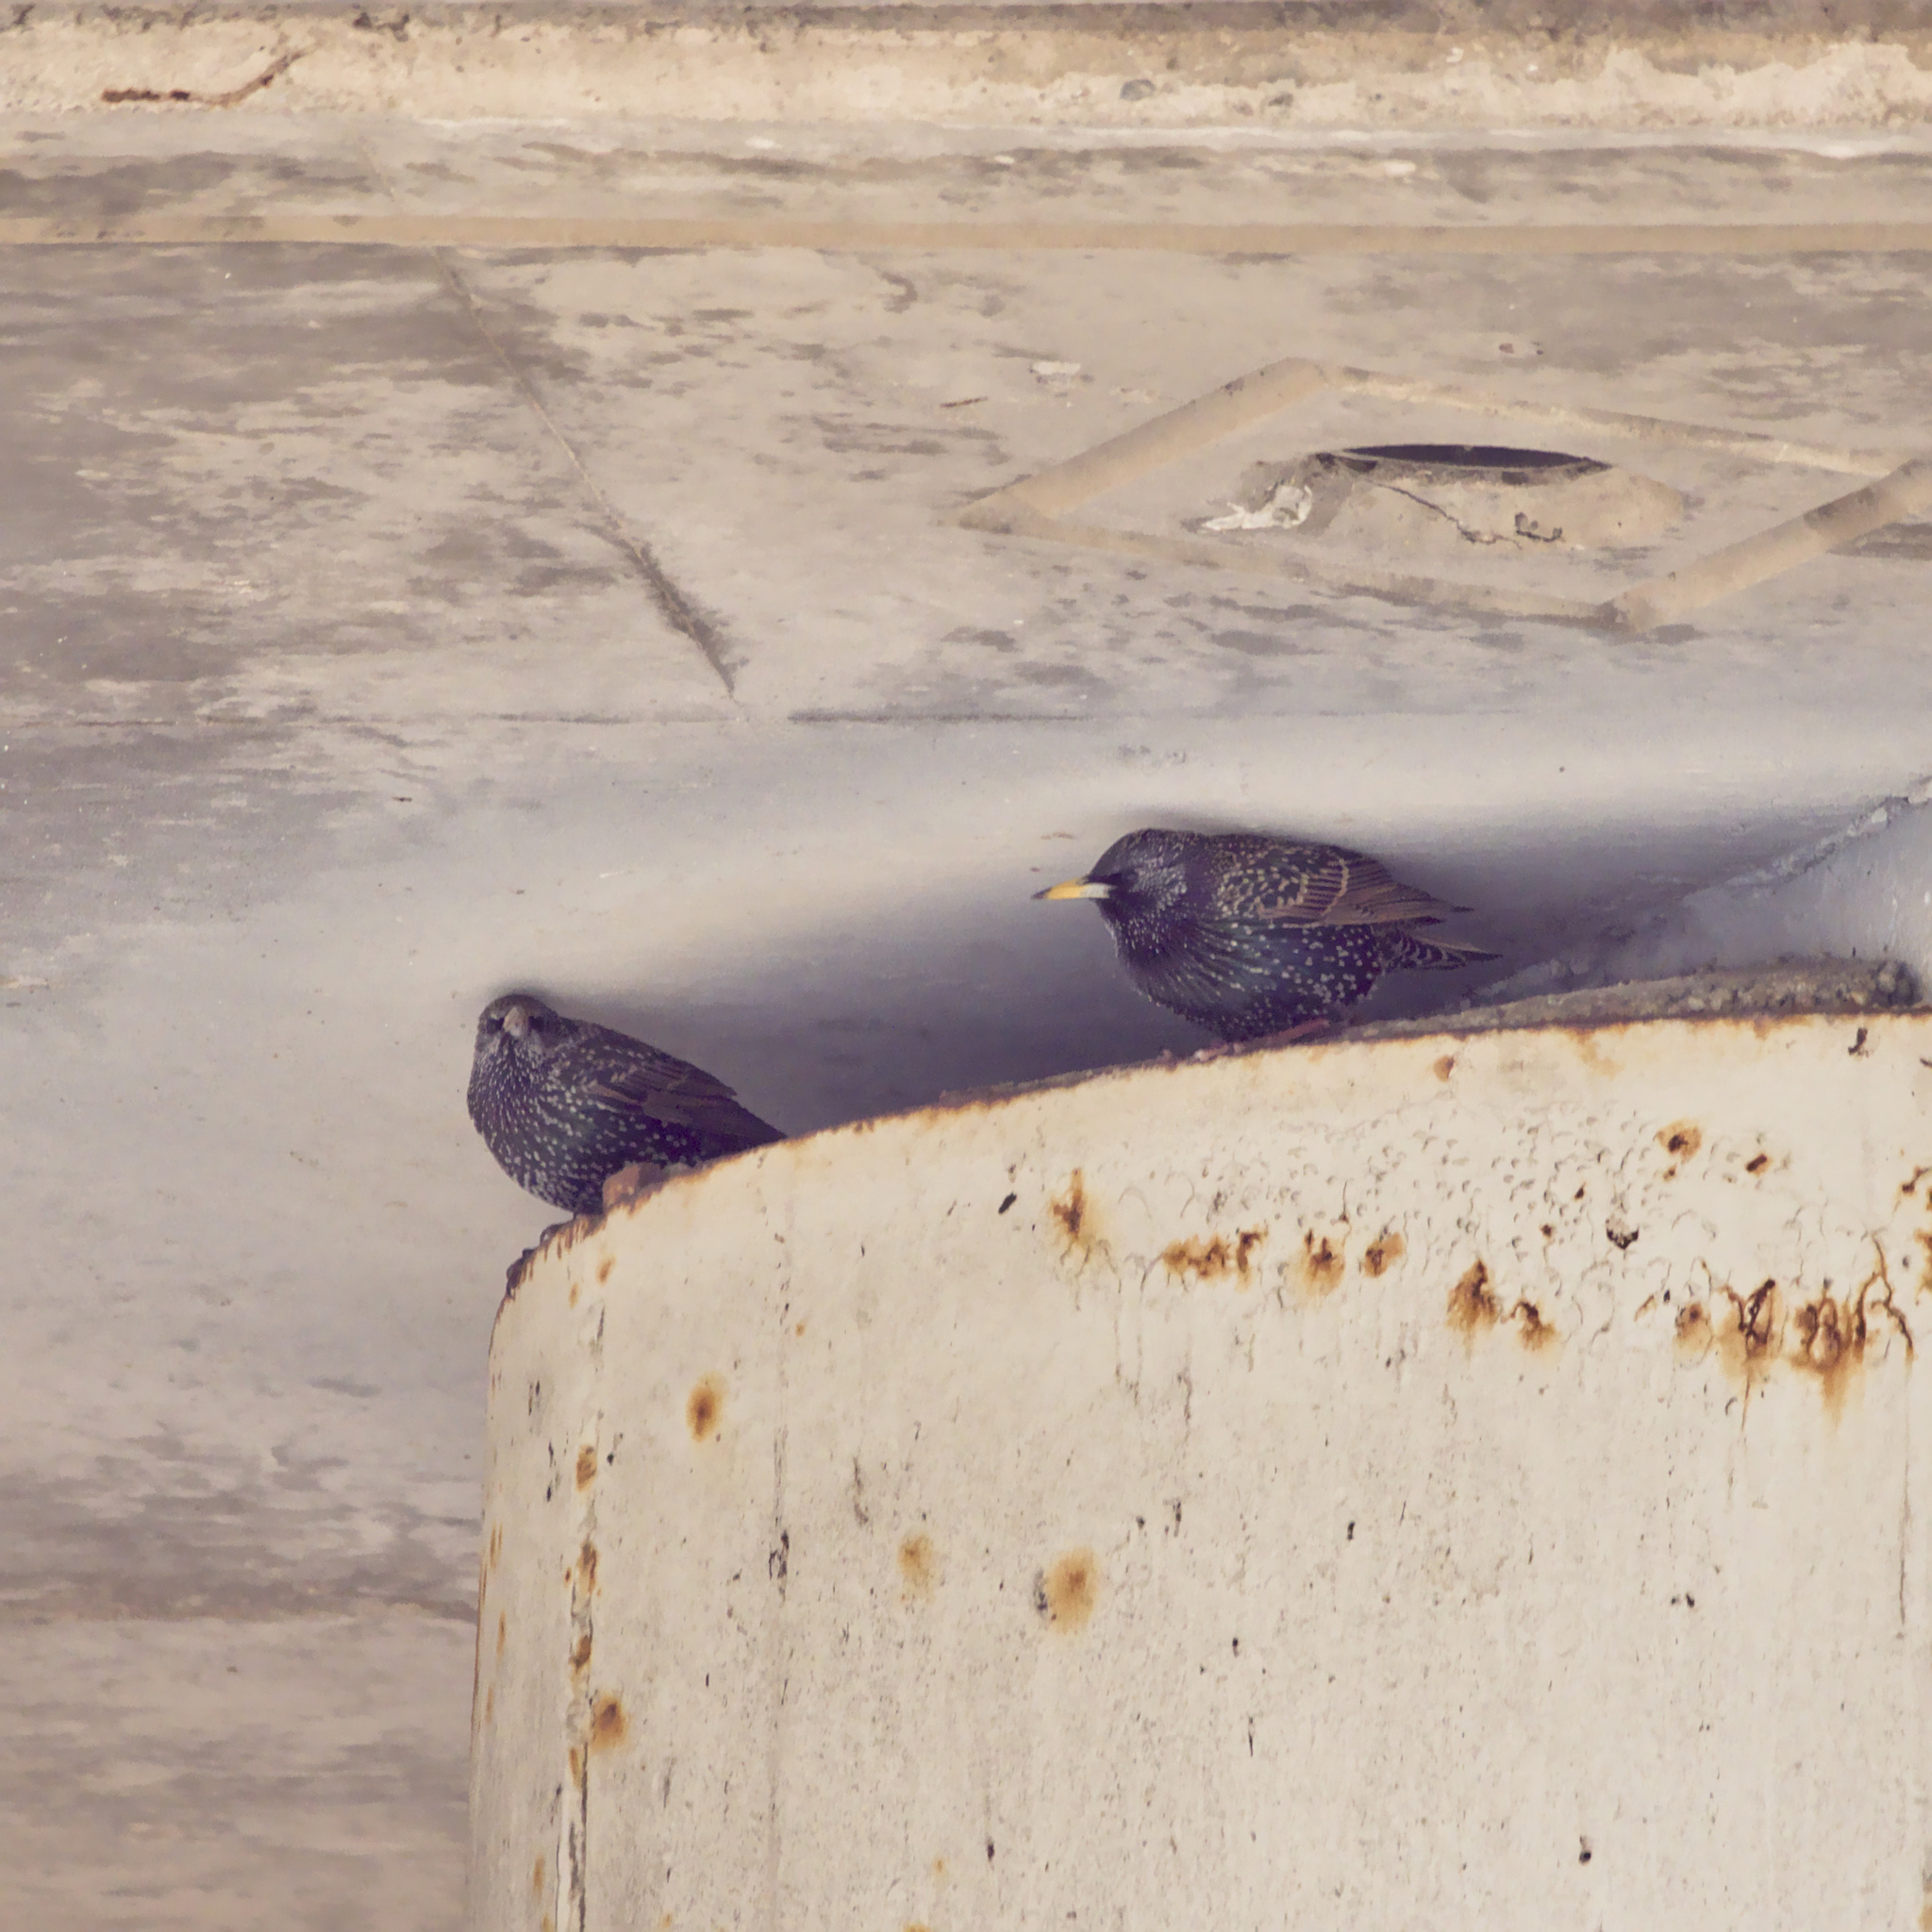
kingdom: Animalia
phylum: Chordata
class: Aves
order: Passeriformes
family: Sturnidae
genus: Sturnus
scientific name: Sturnus vulgaris
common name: Common starling
